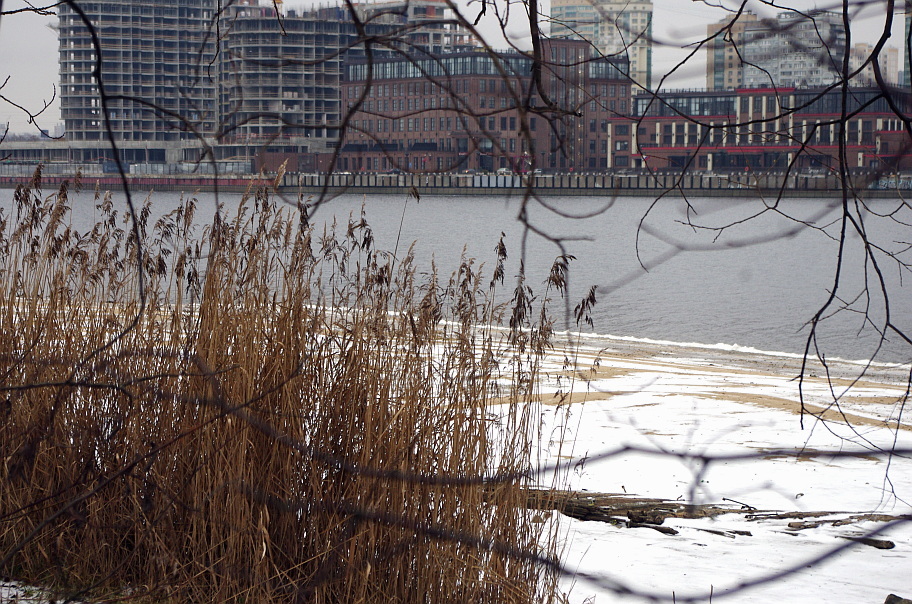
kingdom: Plantae
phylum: Tracheophyta
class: Liliopsida
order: Poales
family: Poaceae
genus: Phragmites
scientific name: Phragmites australis
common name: Common reed
